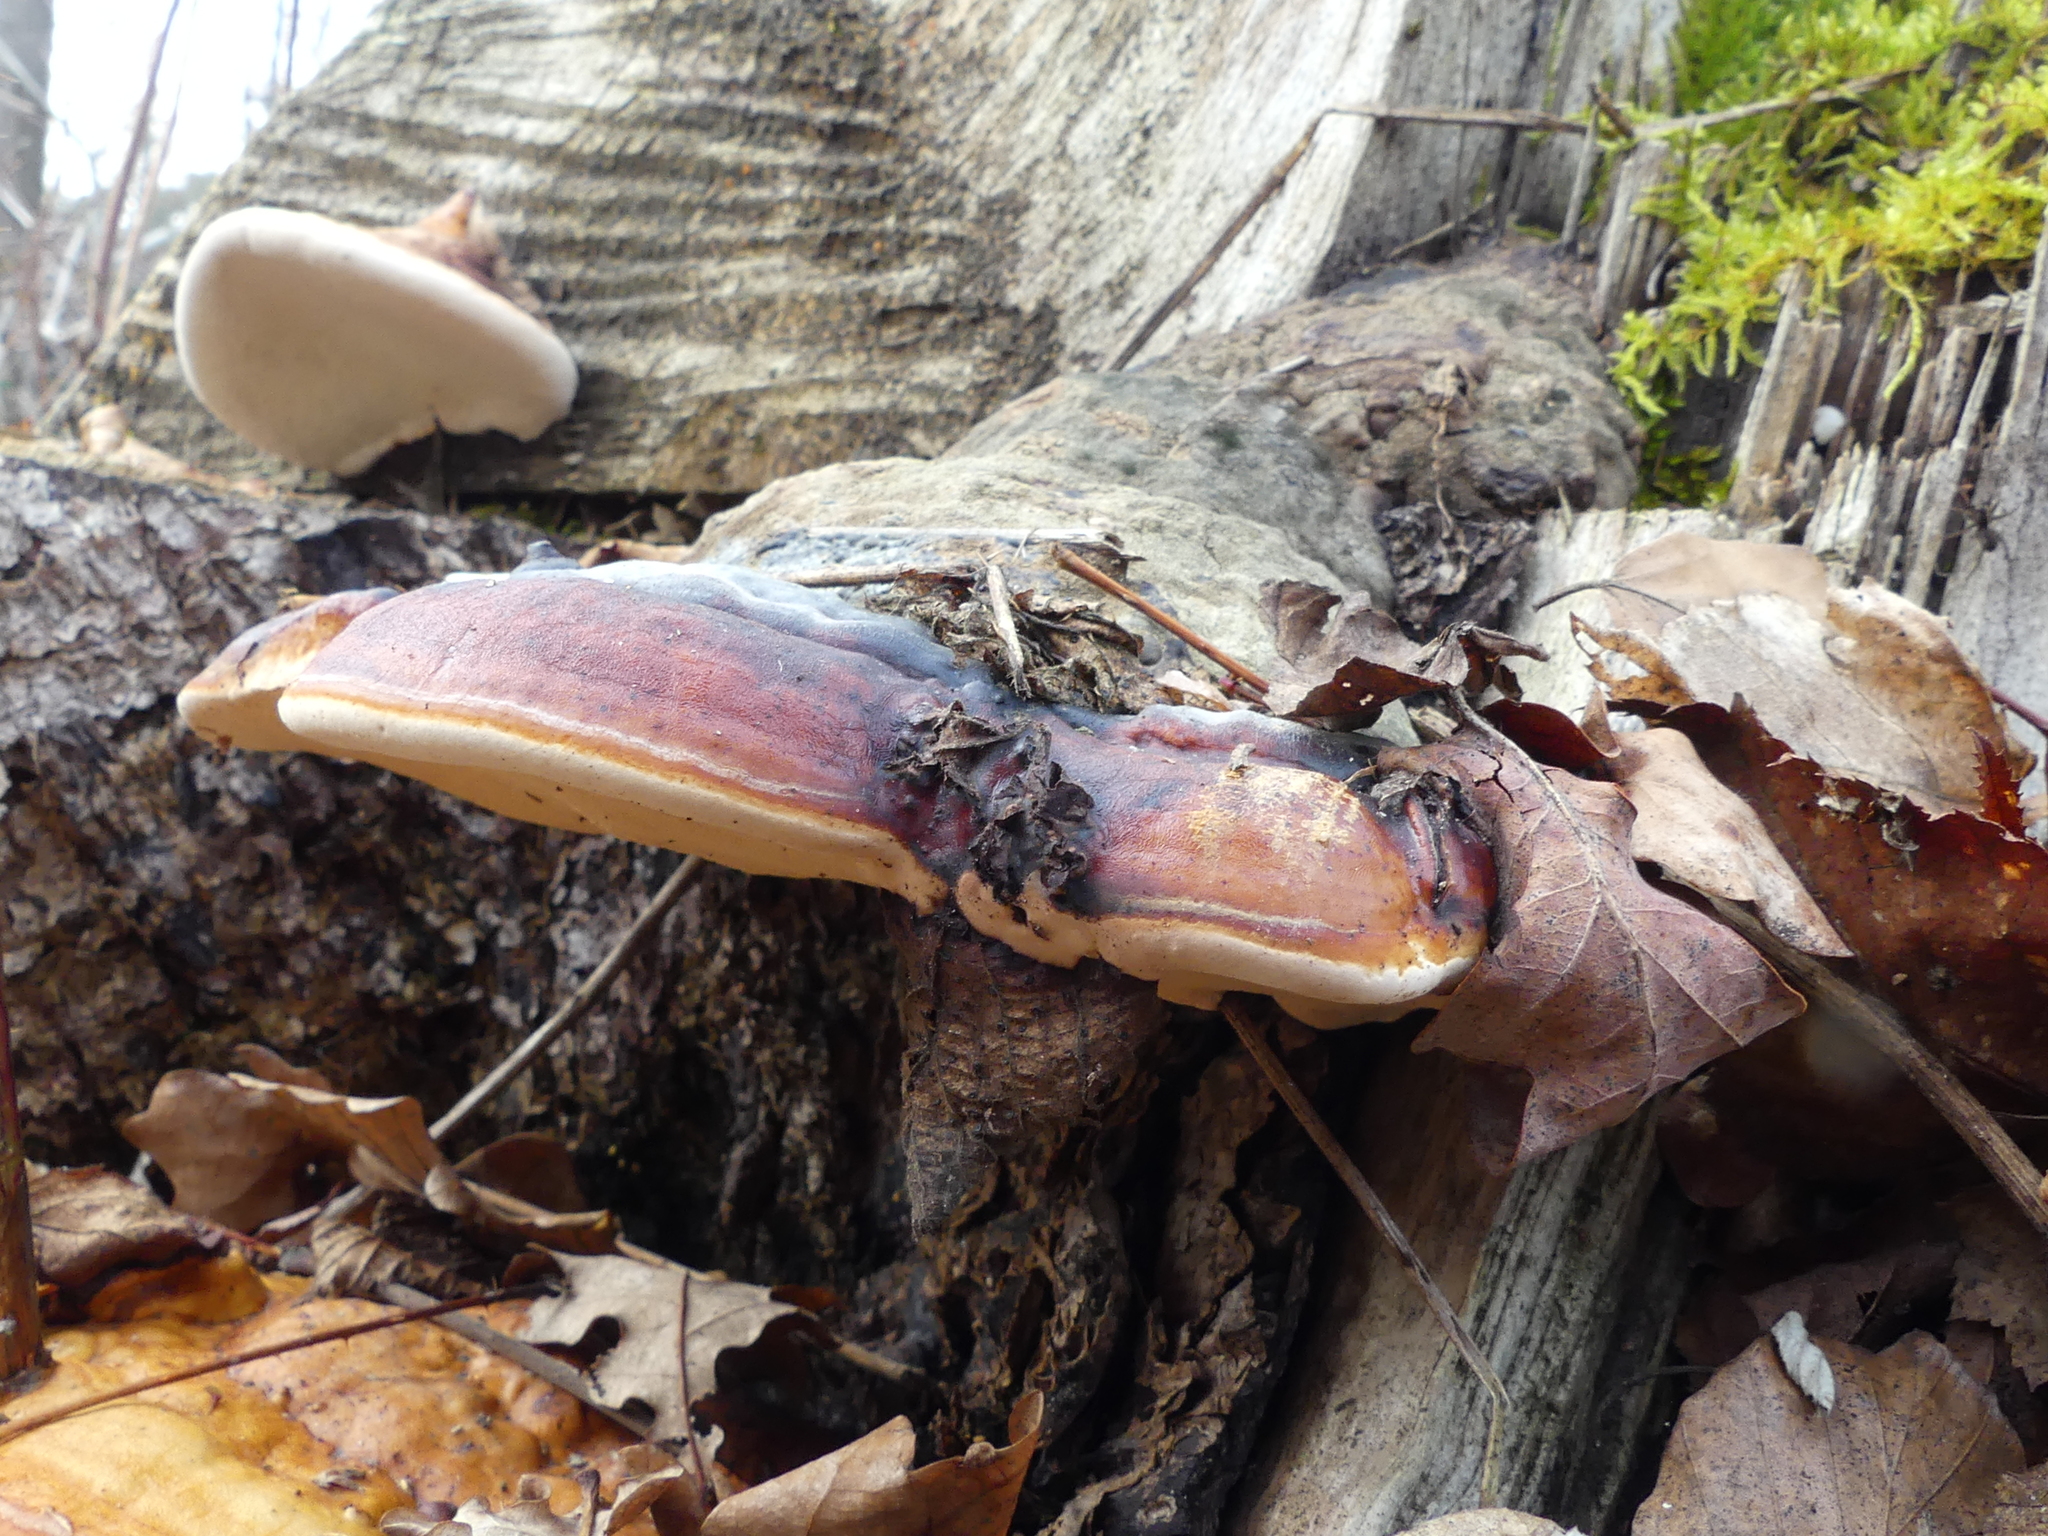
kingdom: Fungi
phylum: Basidiomycota
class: Agaricomycetes
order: Polyporales
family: Fomitopsidaceae
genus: Fomitopsis
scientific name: Fomitopsis pinicola
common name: Red-belted bracket
